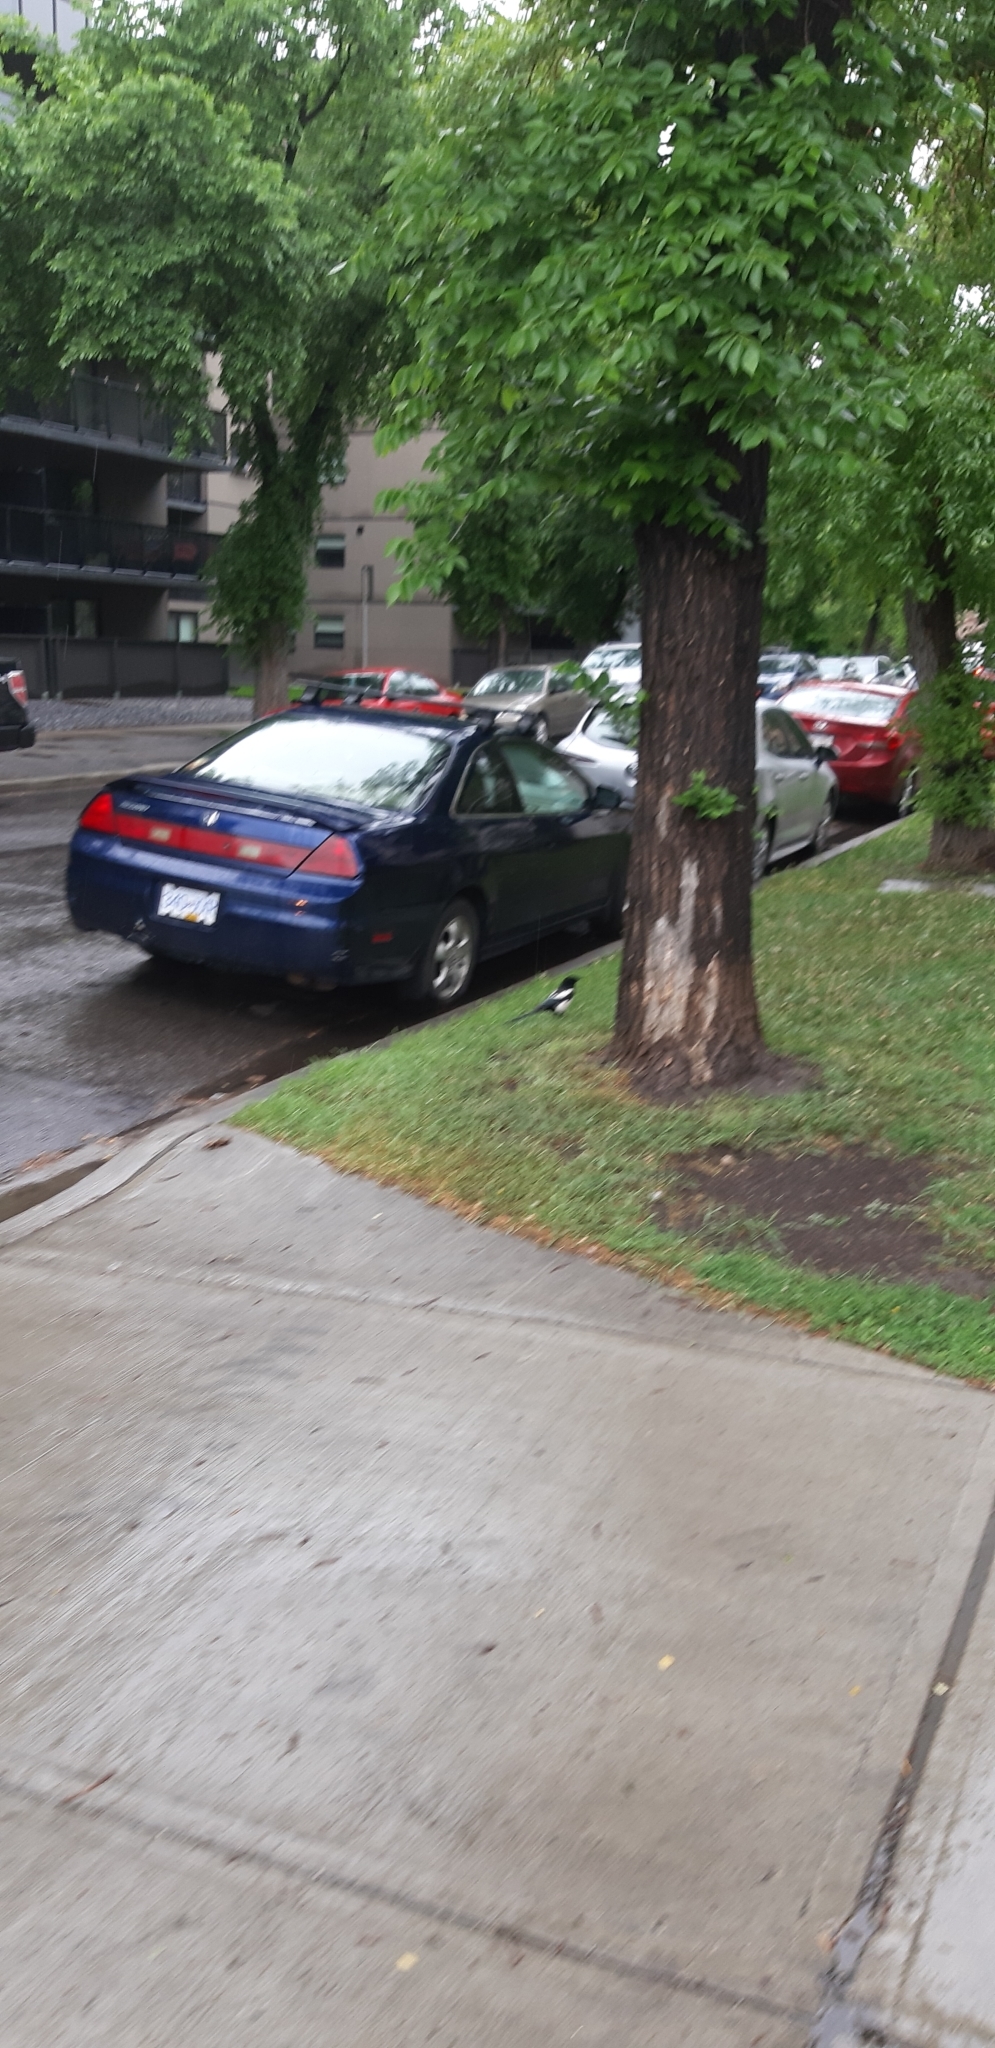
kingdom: Animalia
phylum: Chordata
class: Aves
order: Passeriformes
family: Corvidae
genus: Pica
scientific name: Pica hudsonia
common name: Black-billed magpie
